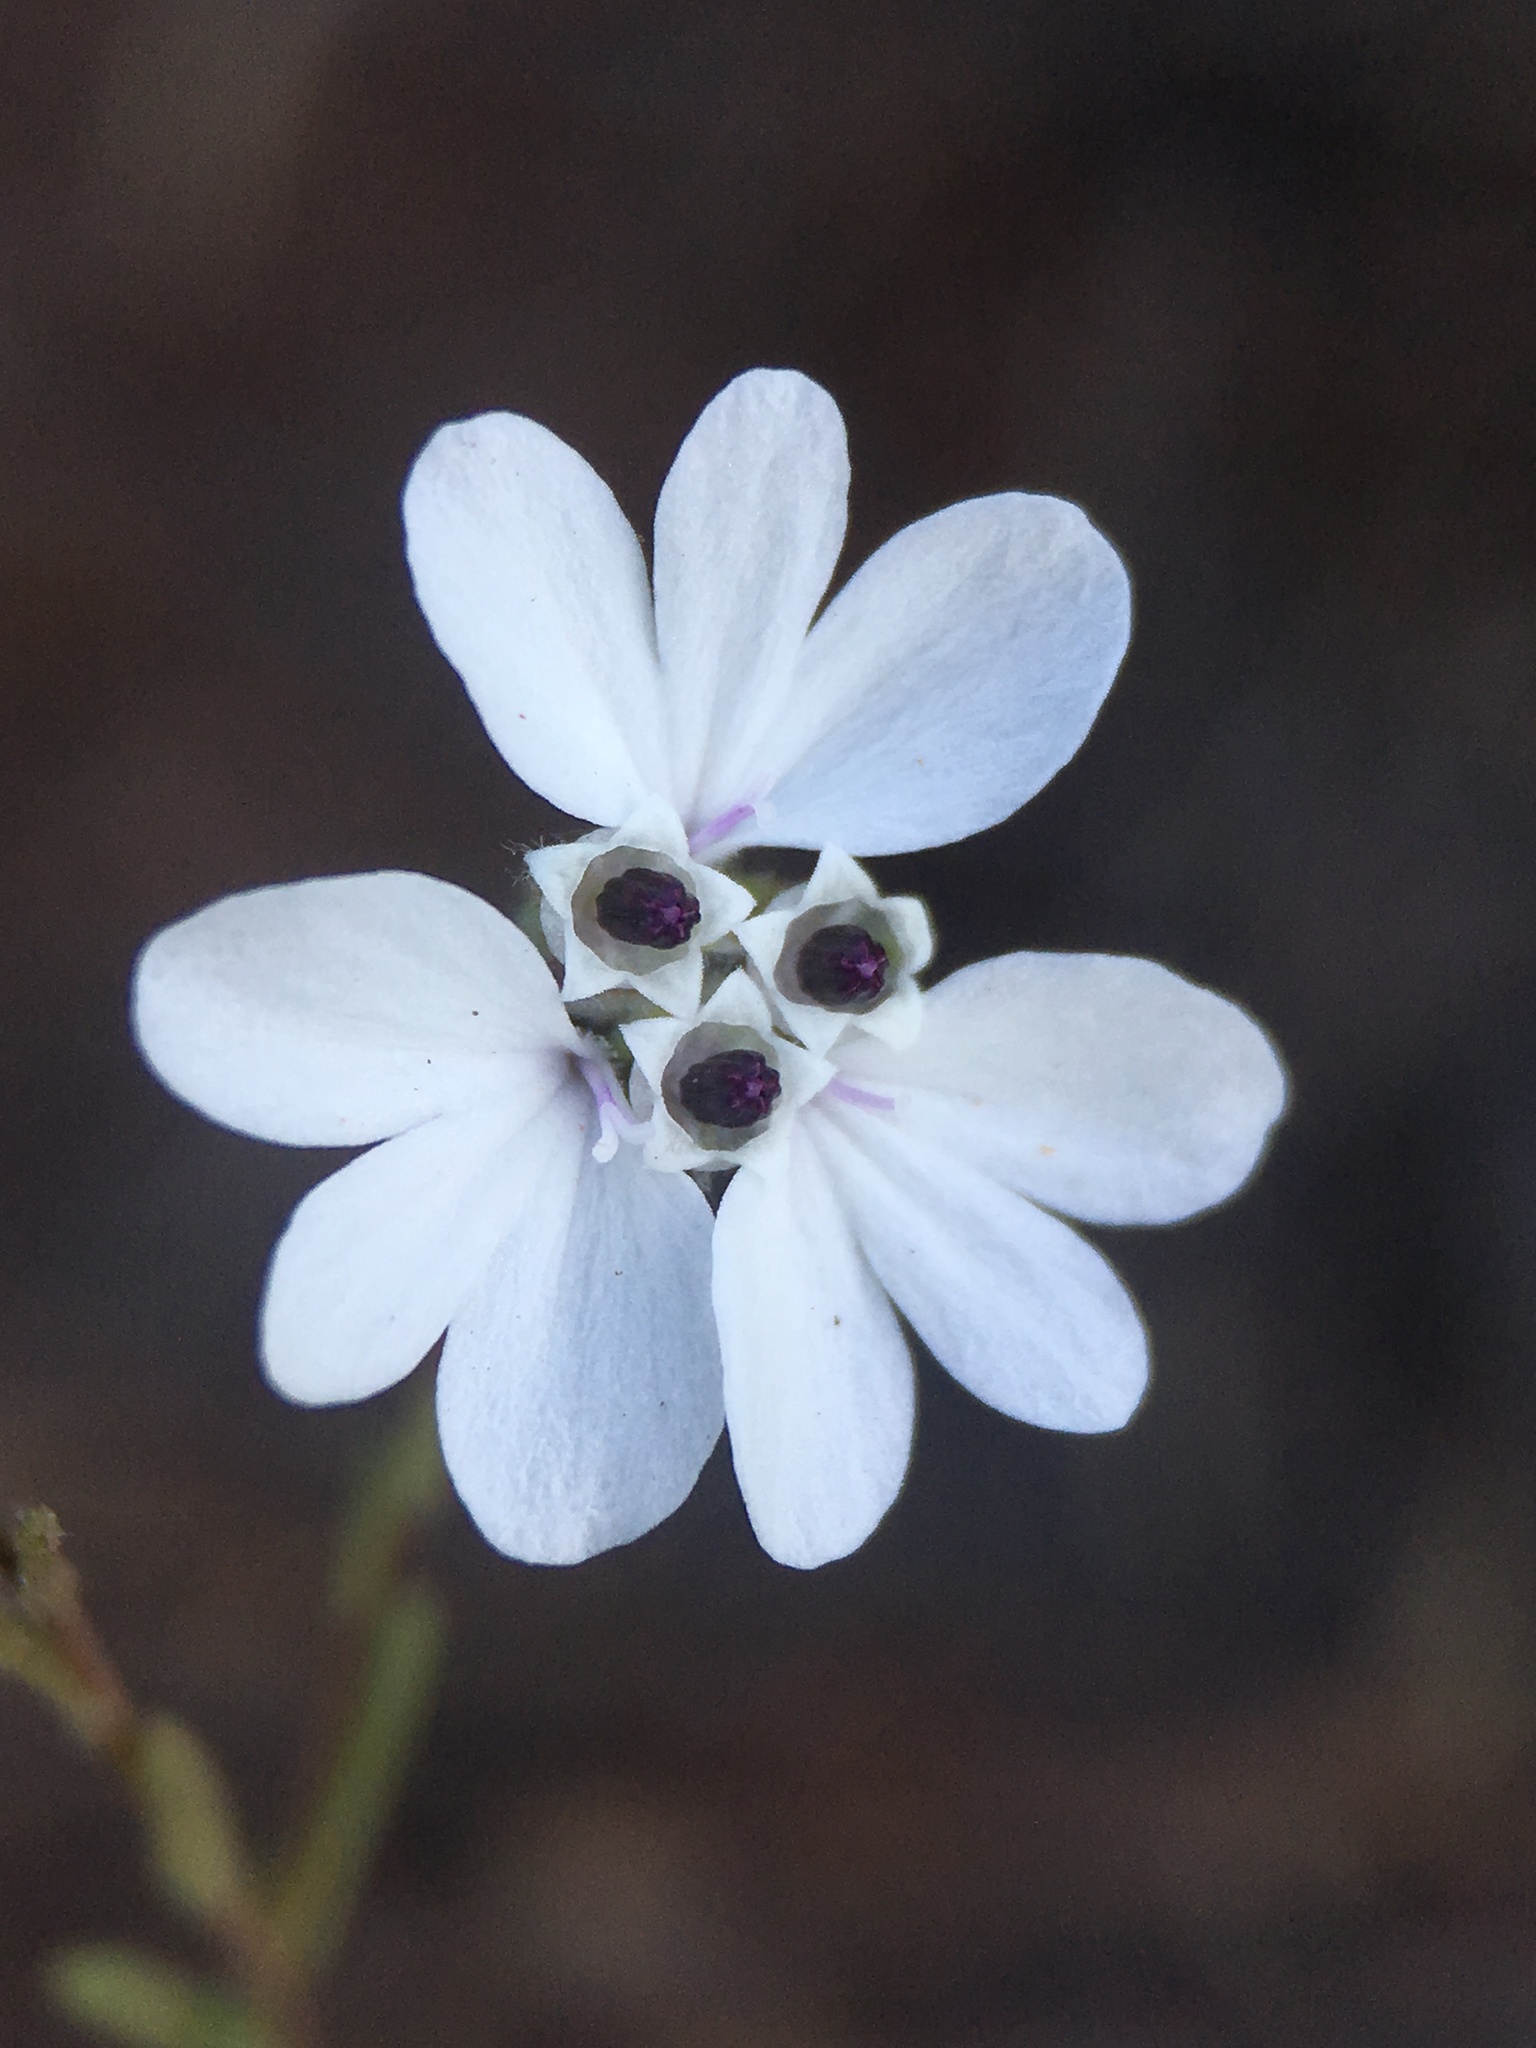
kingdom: Plantae
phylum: Tracheophyta
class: Magnoliopsida
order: Asterales
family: Asteraceae
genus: Blepharipappus
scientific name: Blepharipappus scaber
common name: Rough blepharipappus
